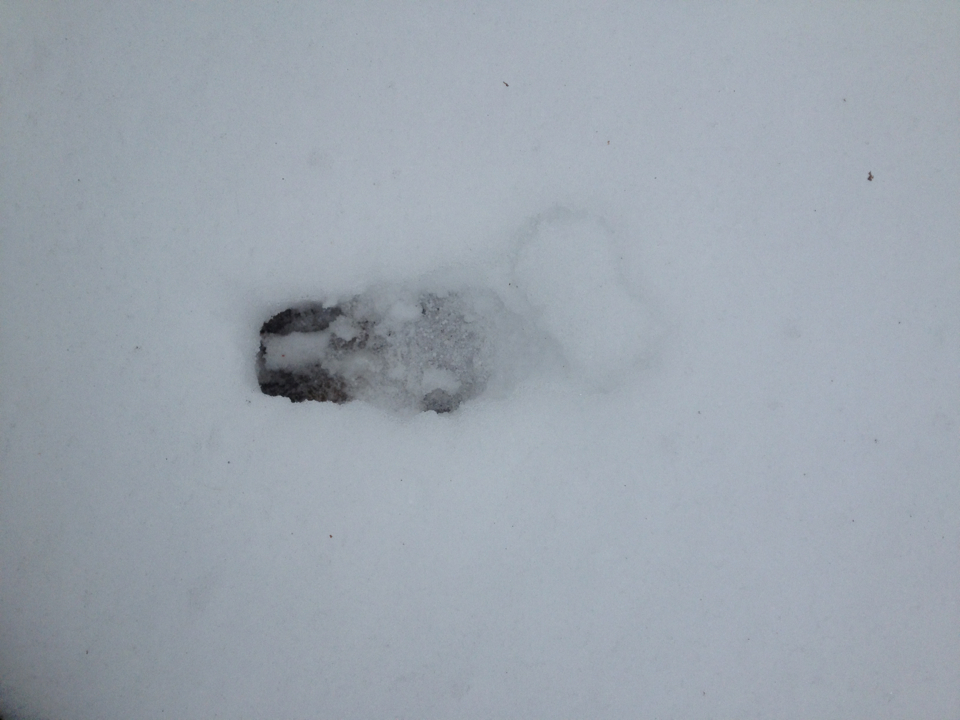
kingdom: Animalia
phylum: Chordata
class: Mammalia
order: Artiodactyla
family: Cervidae
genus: Odocoileus
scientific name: Odocoileus virginianus
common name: White-tailed deer
